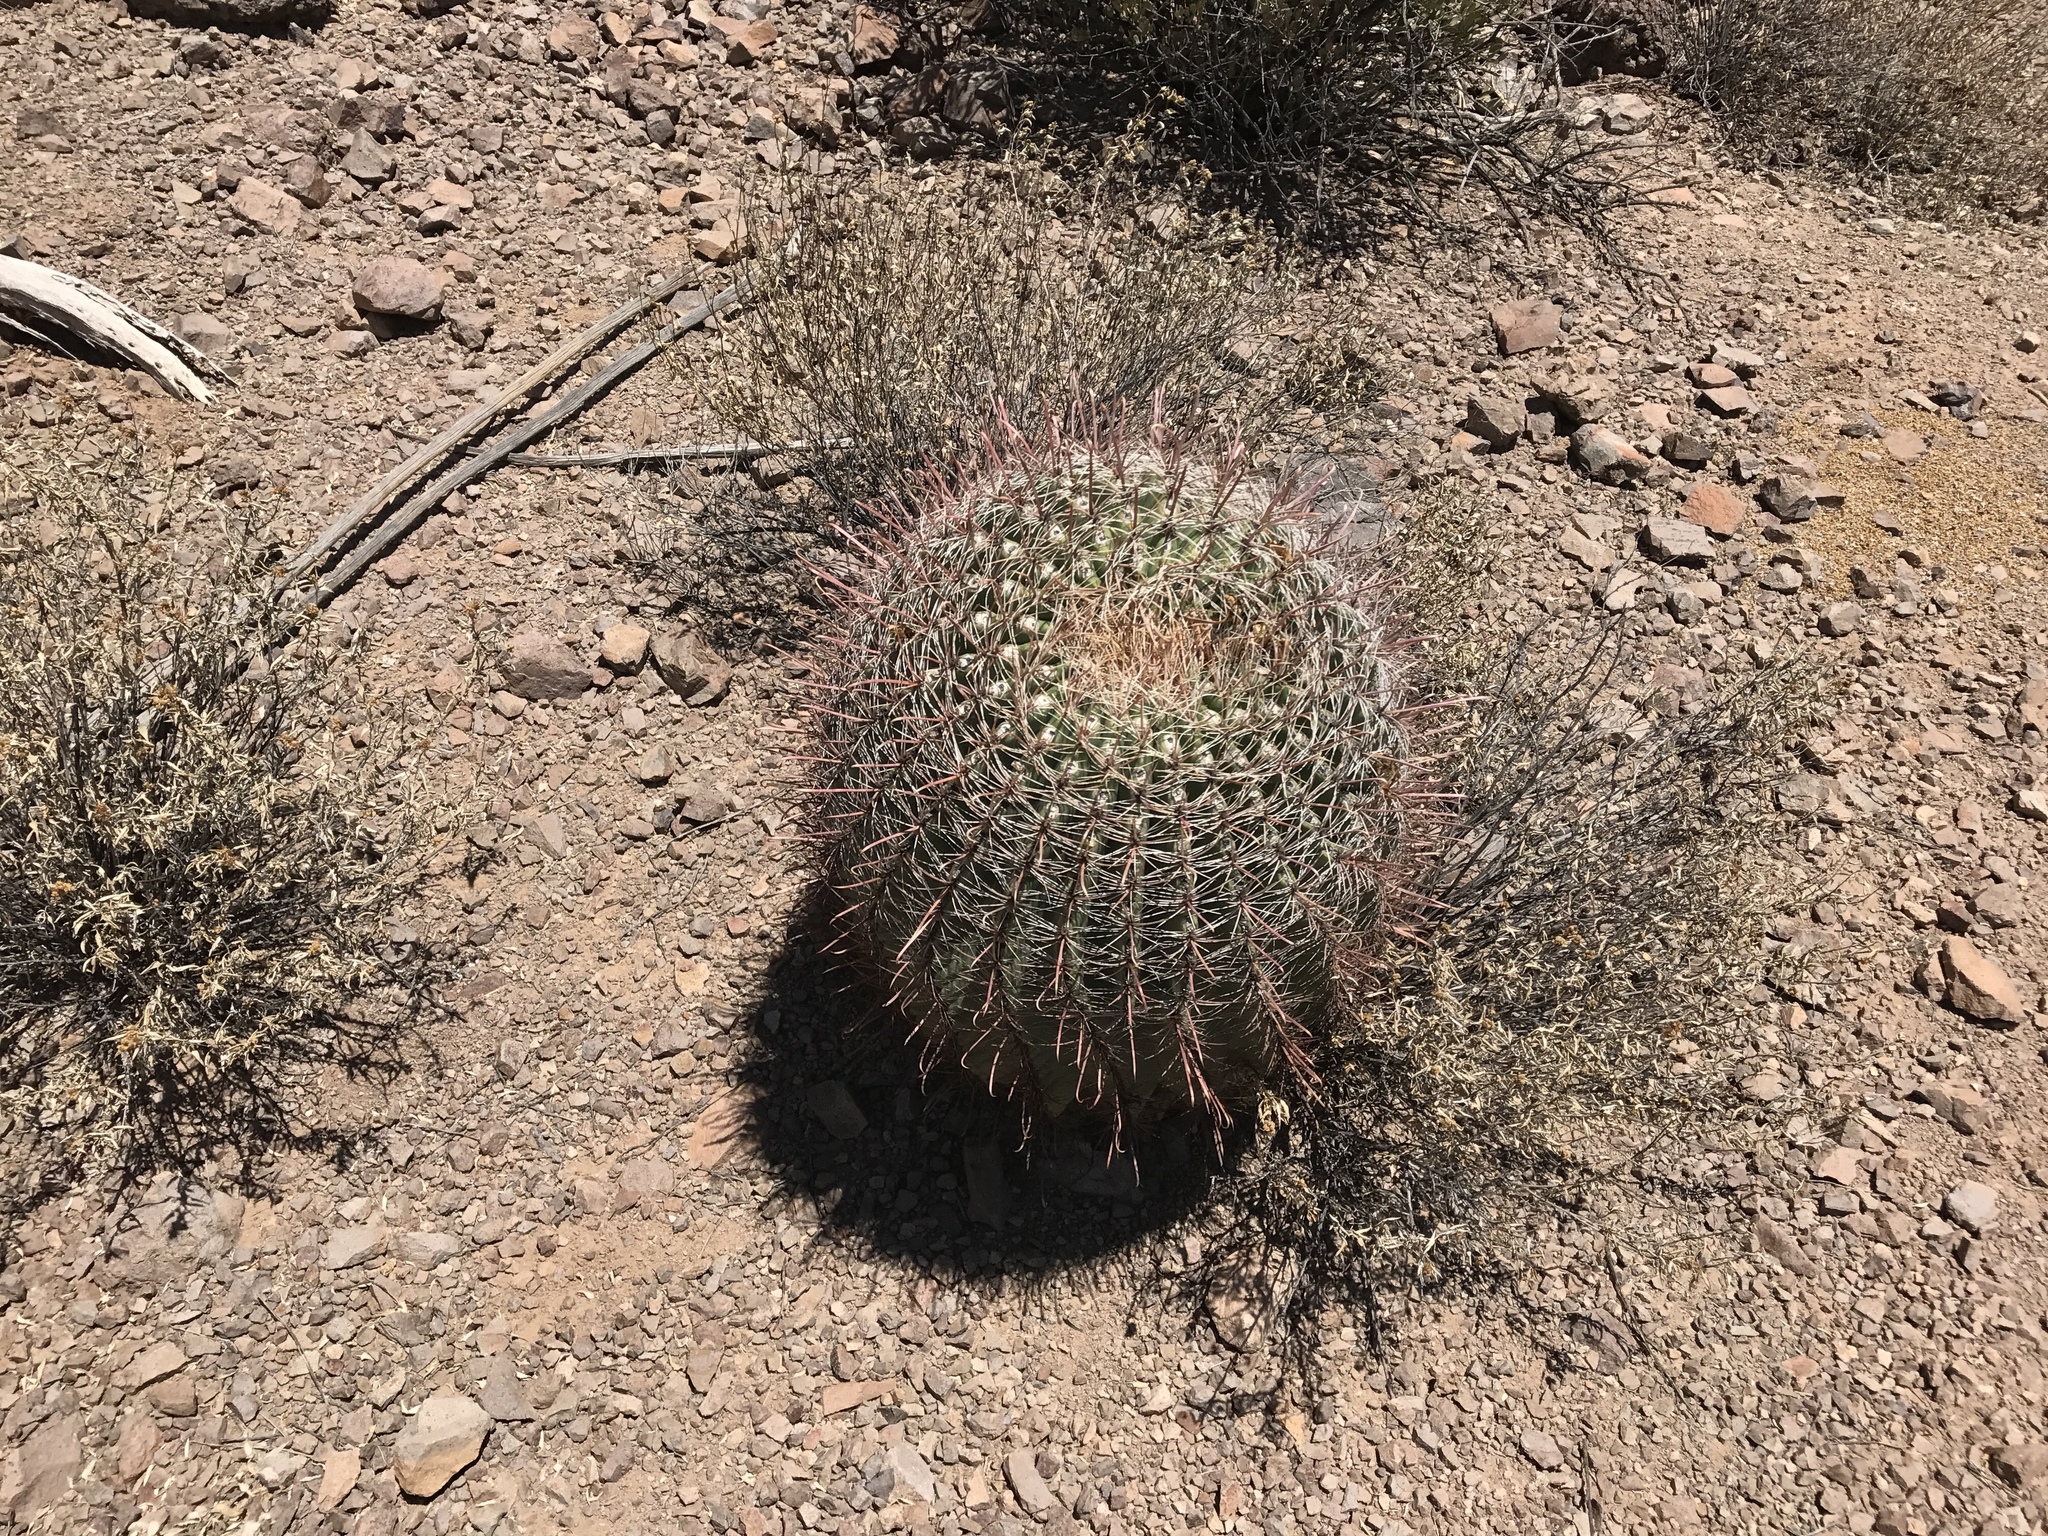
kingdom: Plantae
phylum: Tracheophyta
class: Magnoliopsida
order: Caryophyllales
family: Cactaceae
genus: Ferocactus
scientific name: Ferocactus wislizeni
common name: Candy barrel cactus
